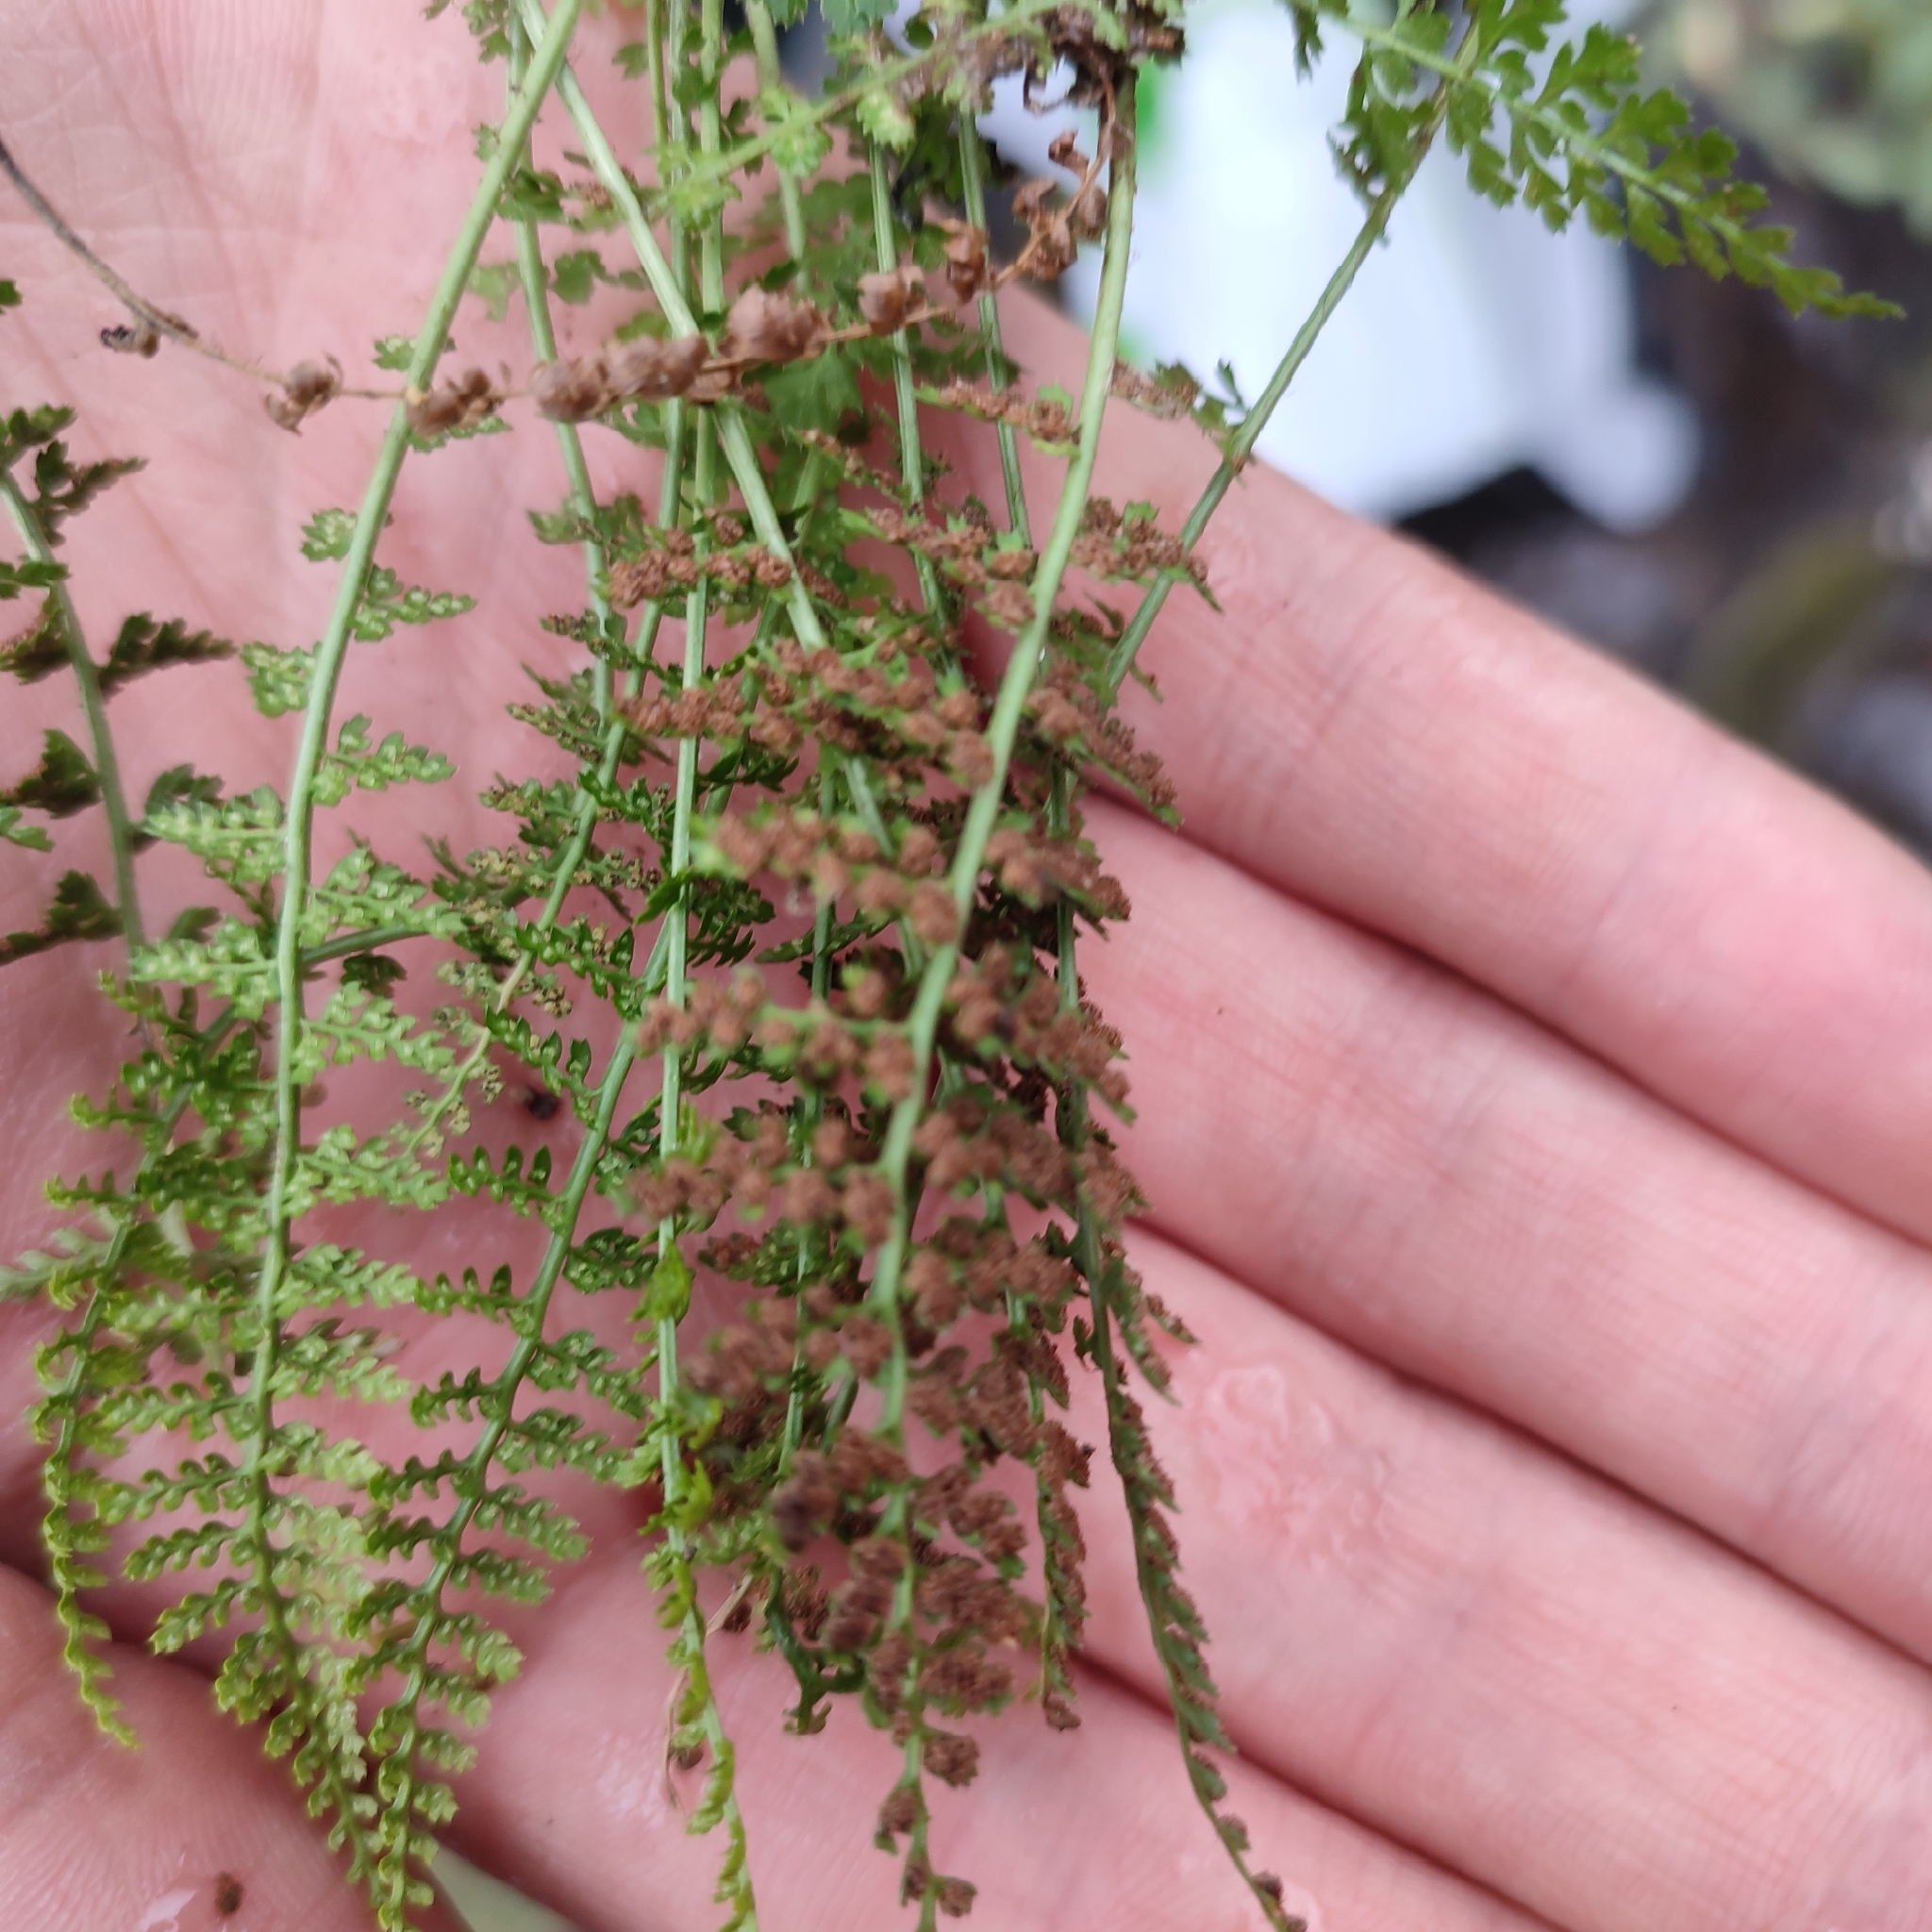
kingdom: Plantae
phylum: Tracheophyta
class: Polypodiopsida
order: Polypodiales
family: Aspleniaceae
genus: Asplenium
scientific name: Asplenium fontanum
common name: Fountain spleenwort
